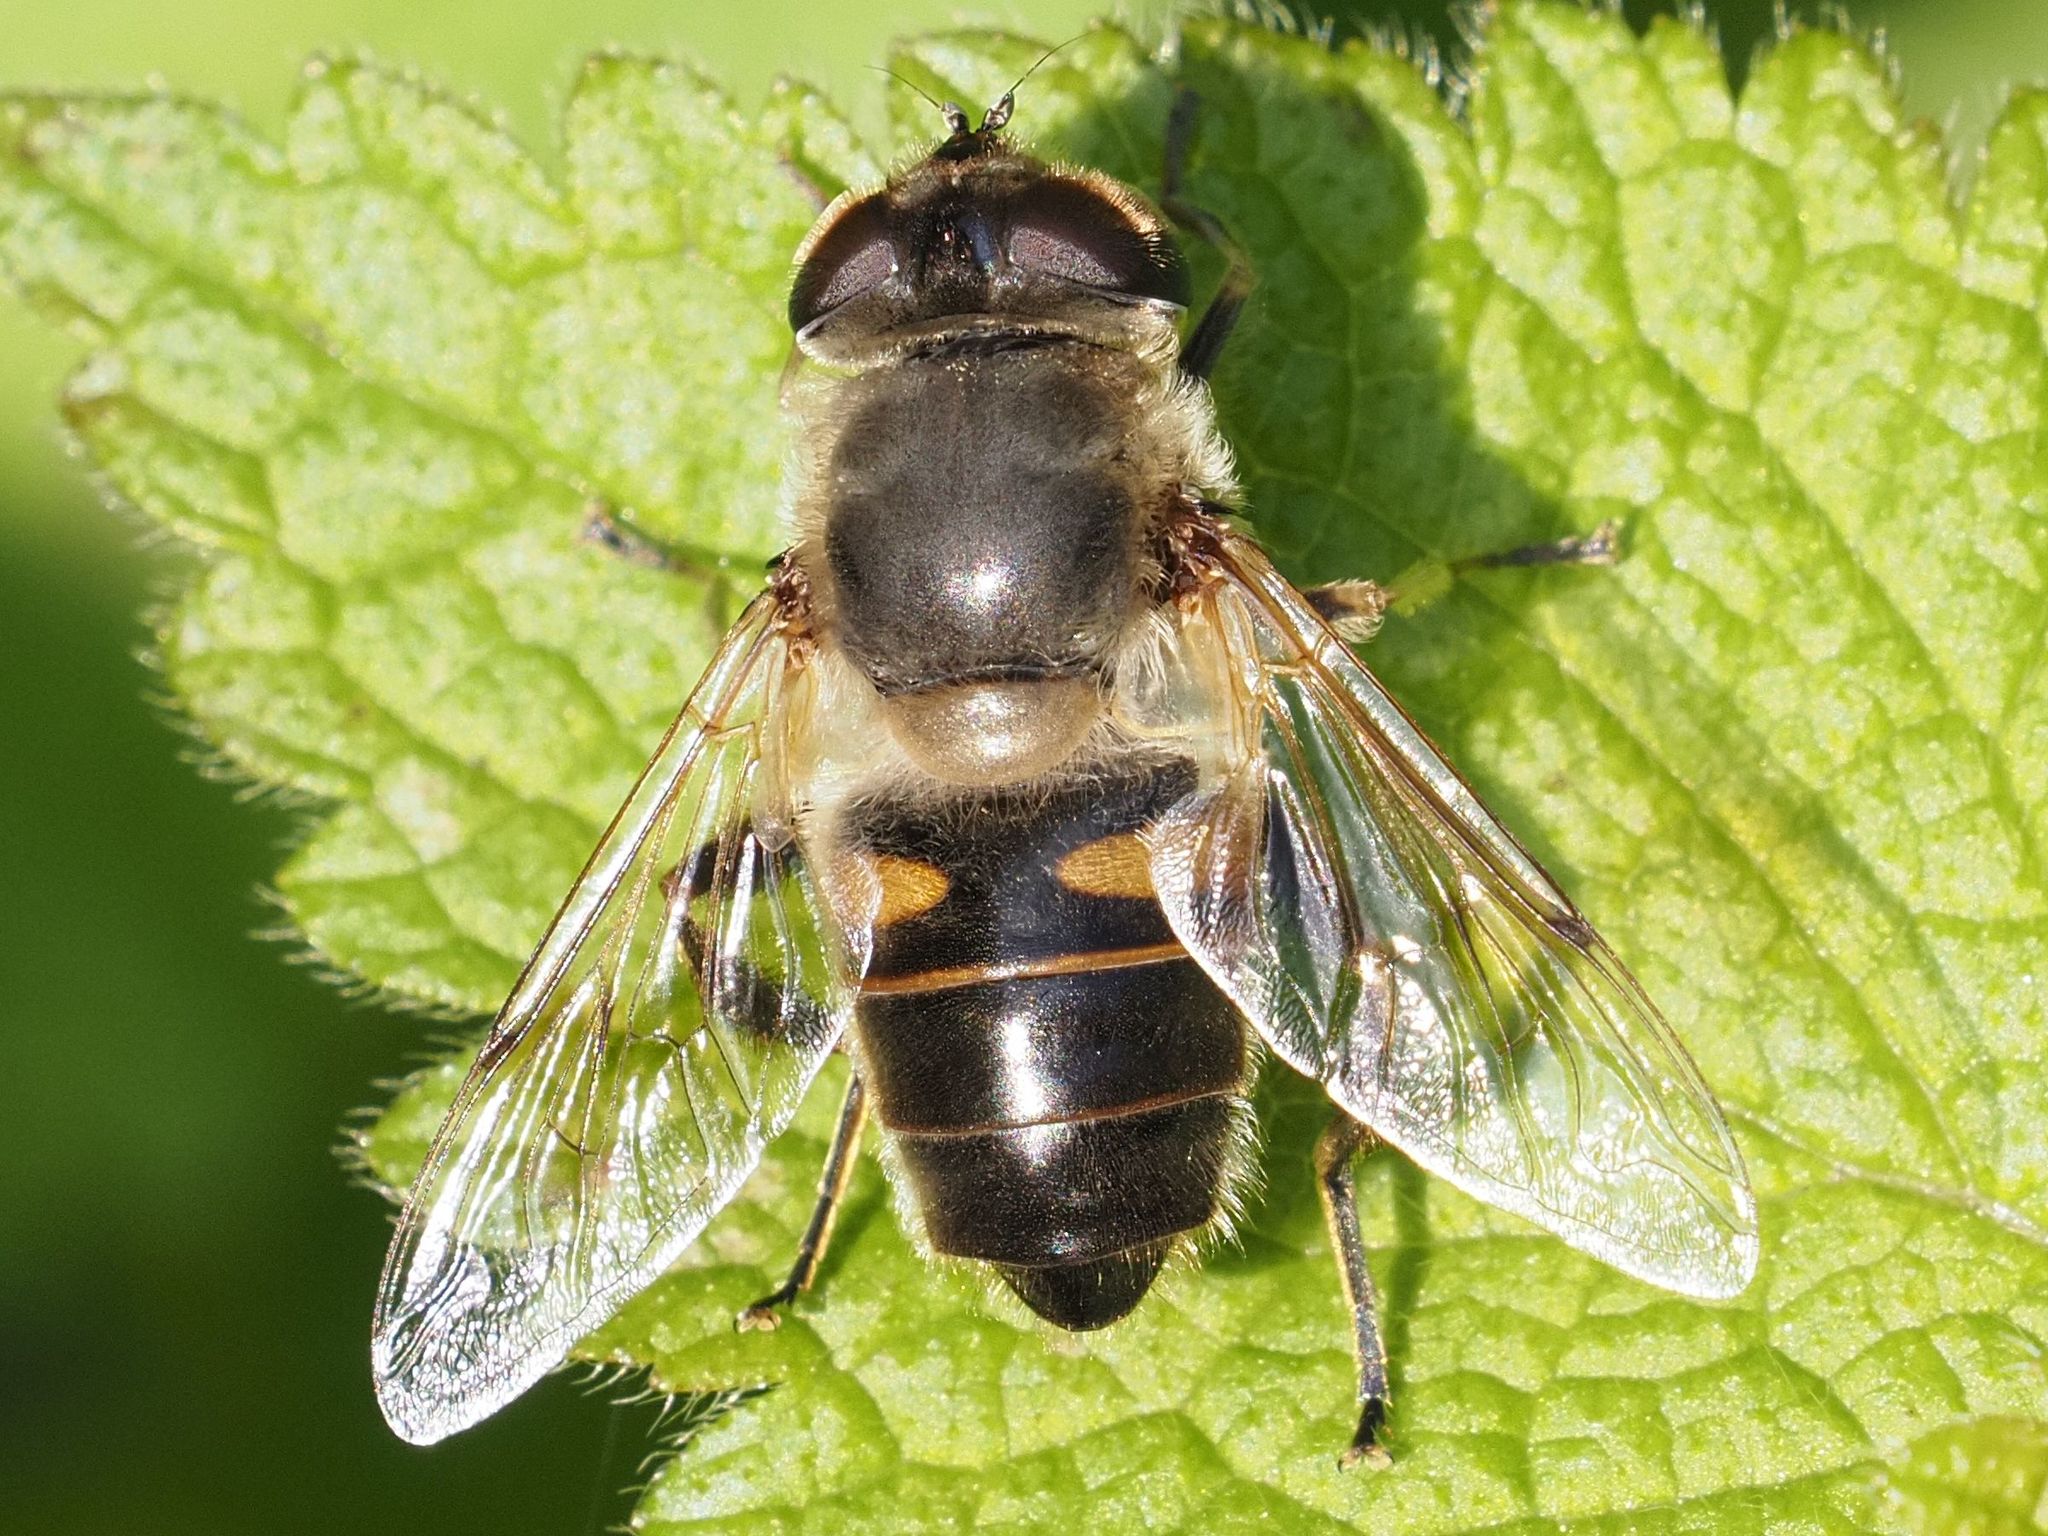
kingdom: Animalia
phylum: Arthropoda
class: Insecta
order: Diptera
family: Syrphidae
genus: Eristalis
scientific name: Eristalis tenax
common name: Drone fly
